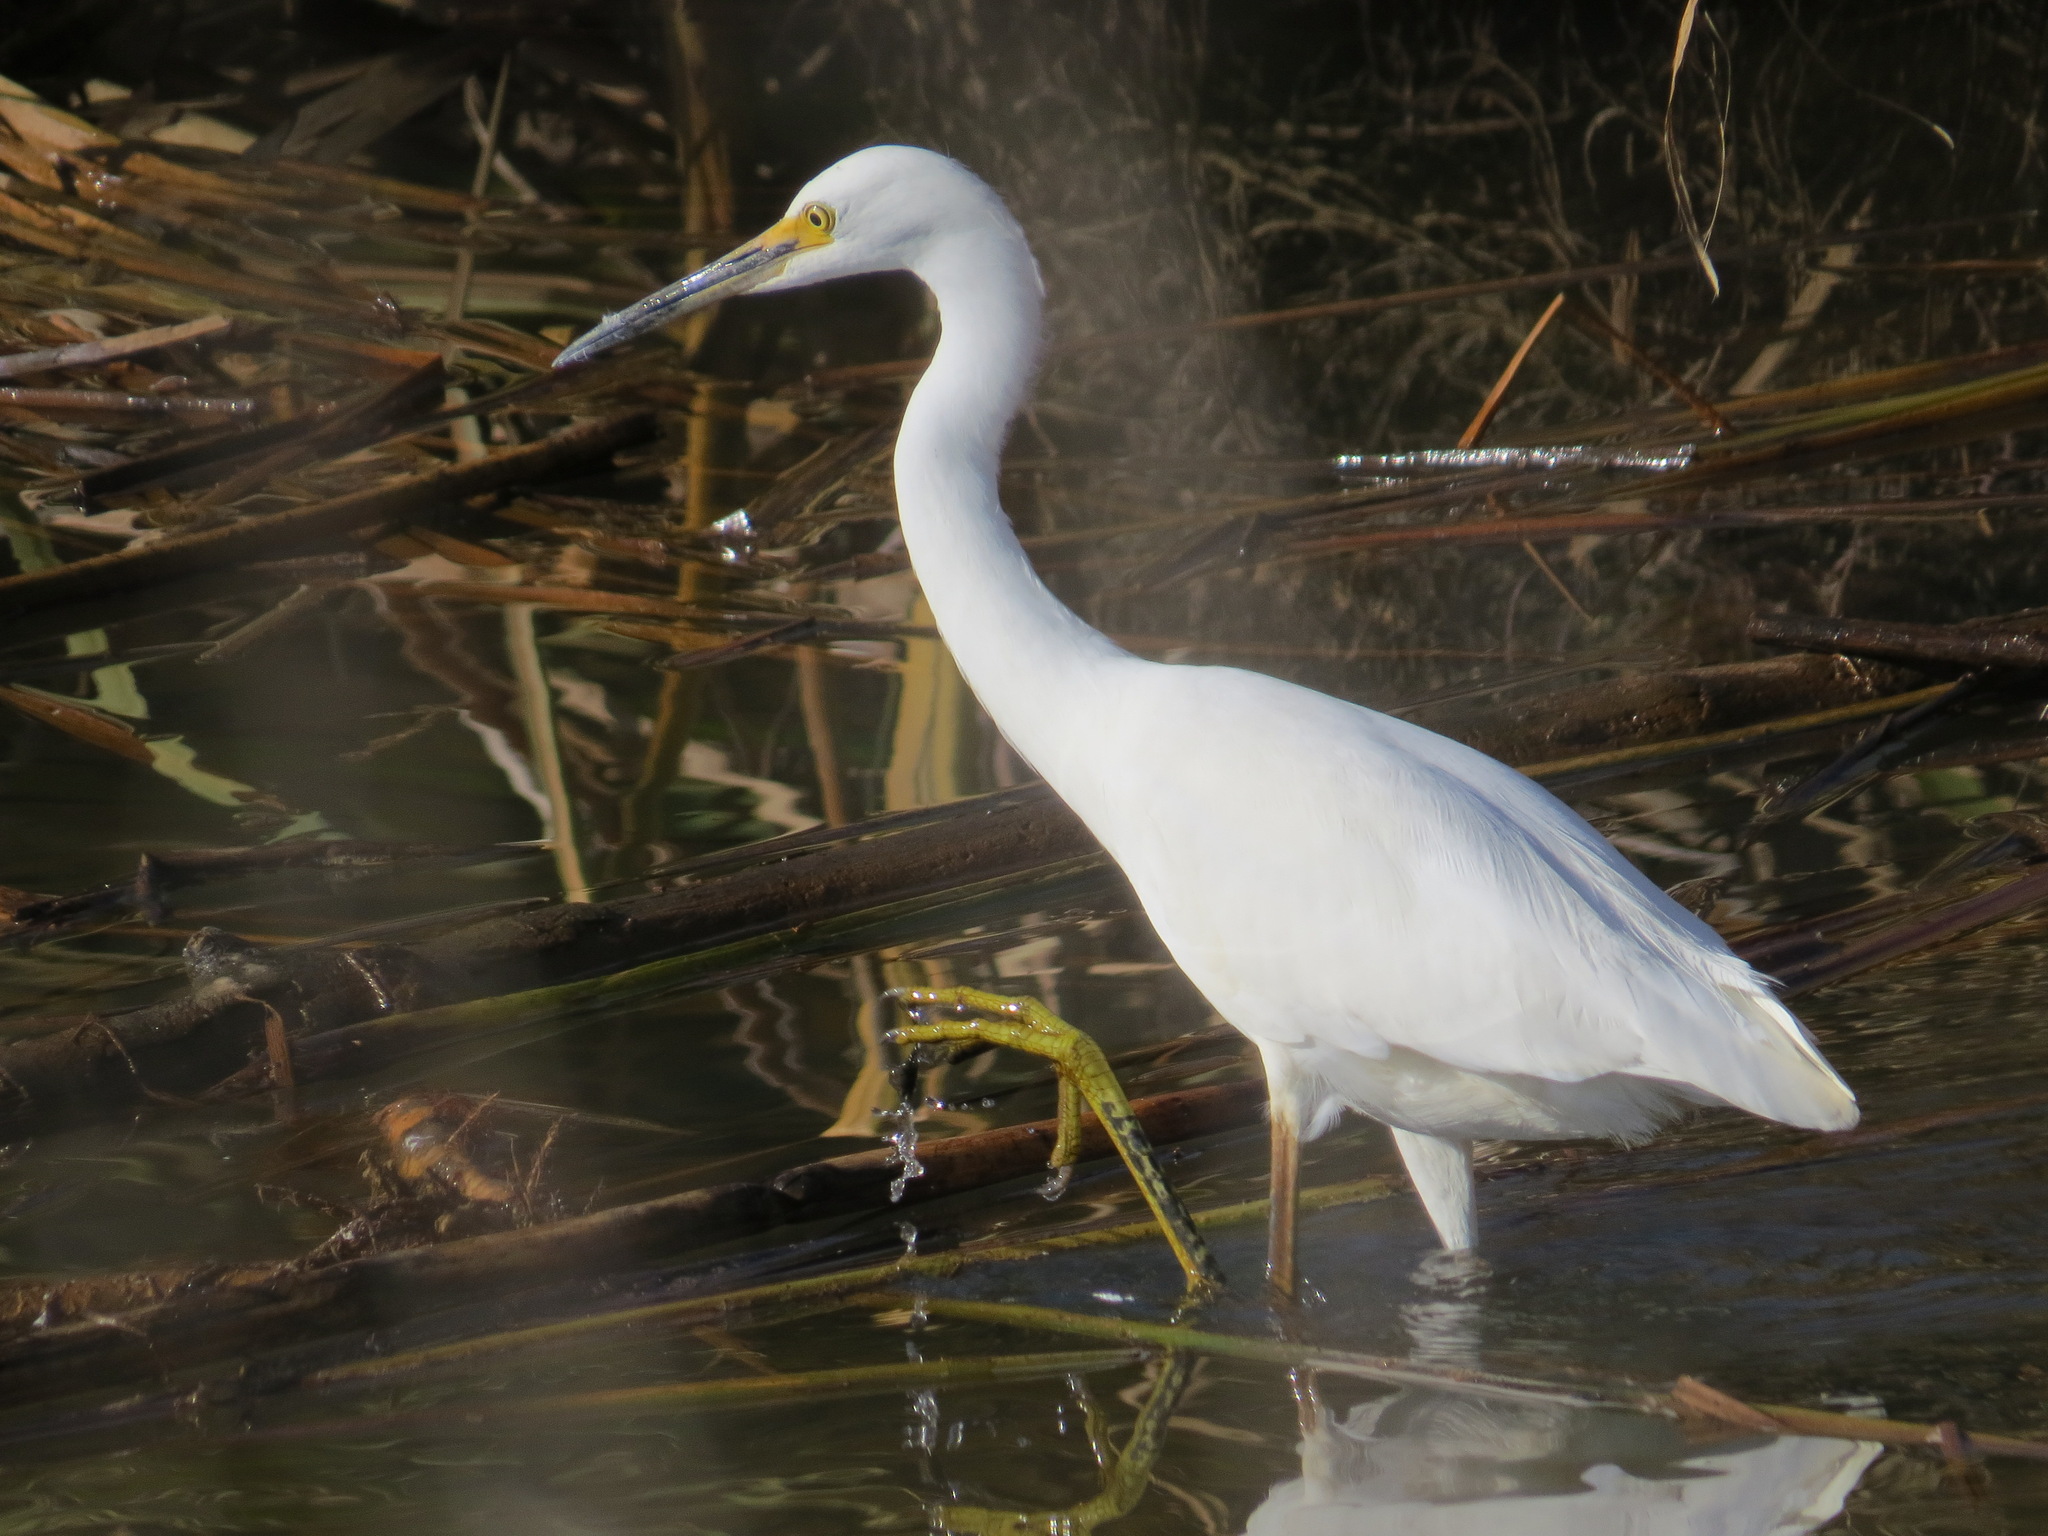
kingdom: Animalia
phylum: Chordata
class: Aves
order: Pelecaniformes
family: Ardeidae
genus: Egretta
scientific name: Egretta thula
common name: Snowy egret
